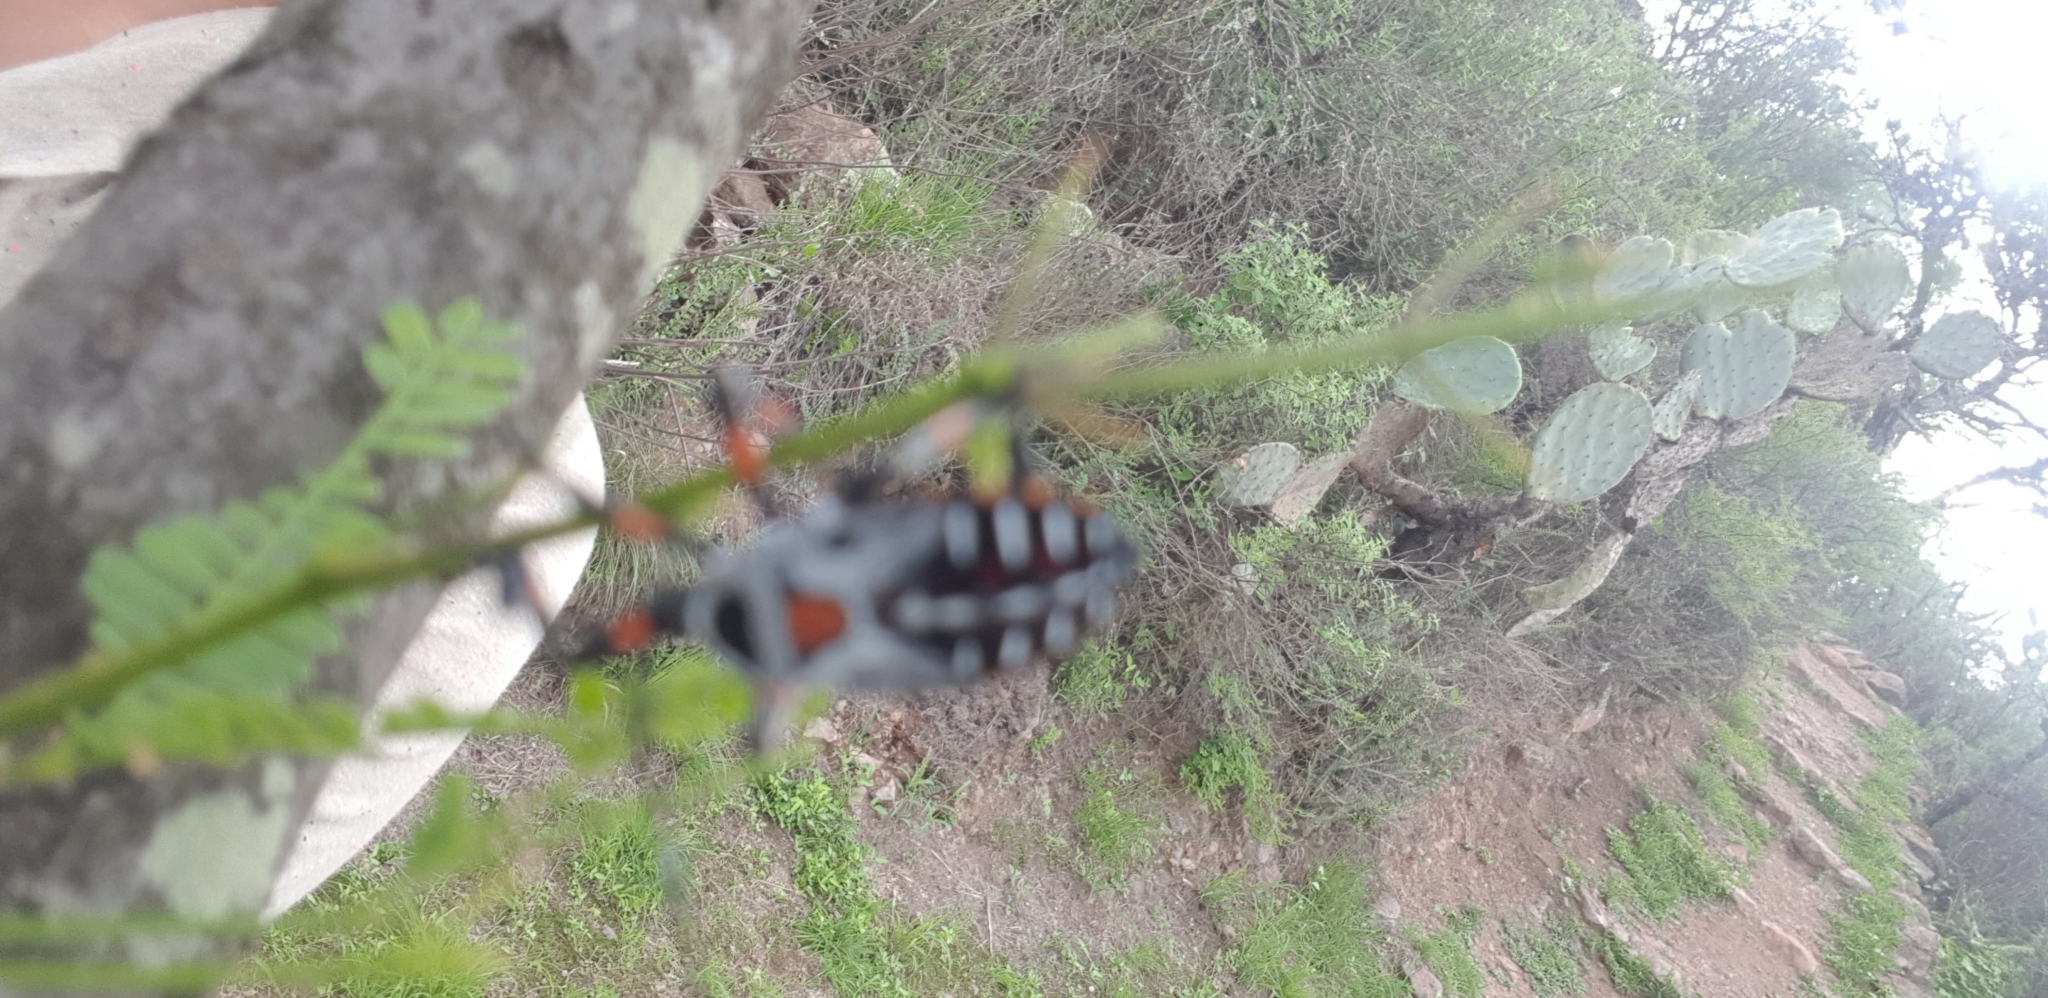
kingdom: Animalia
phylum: Arthropoda
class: Insecta
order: Hemiptera
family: Coreidae
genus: Thasus
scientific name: Thasus
